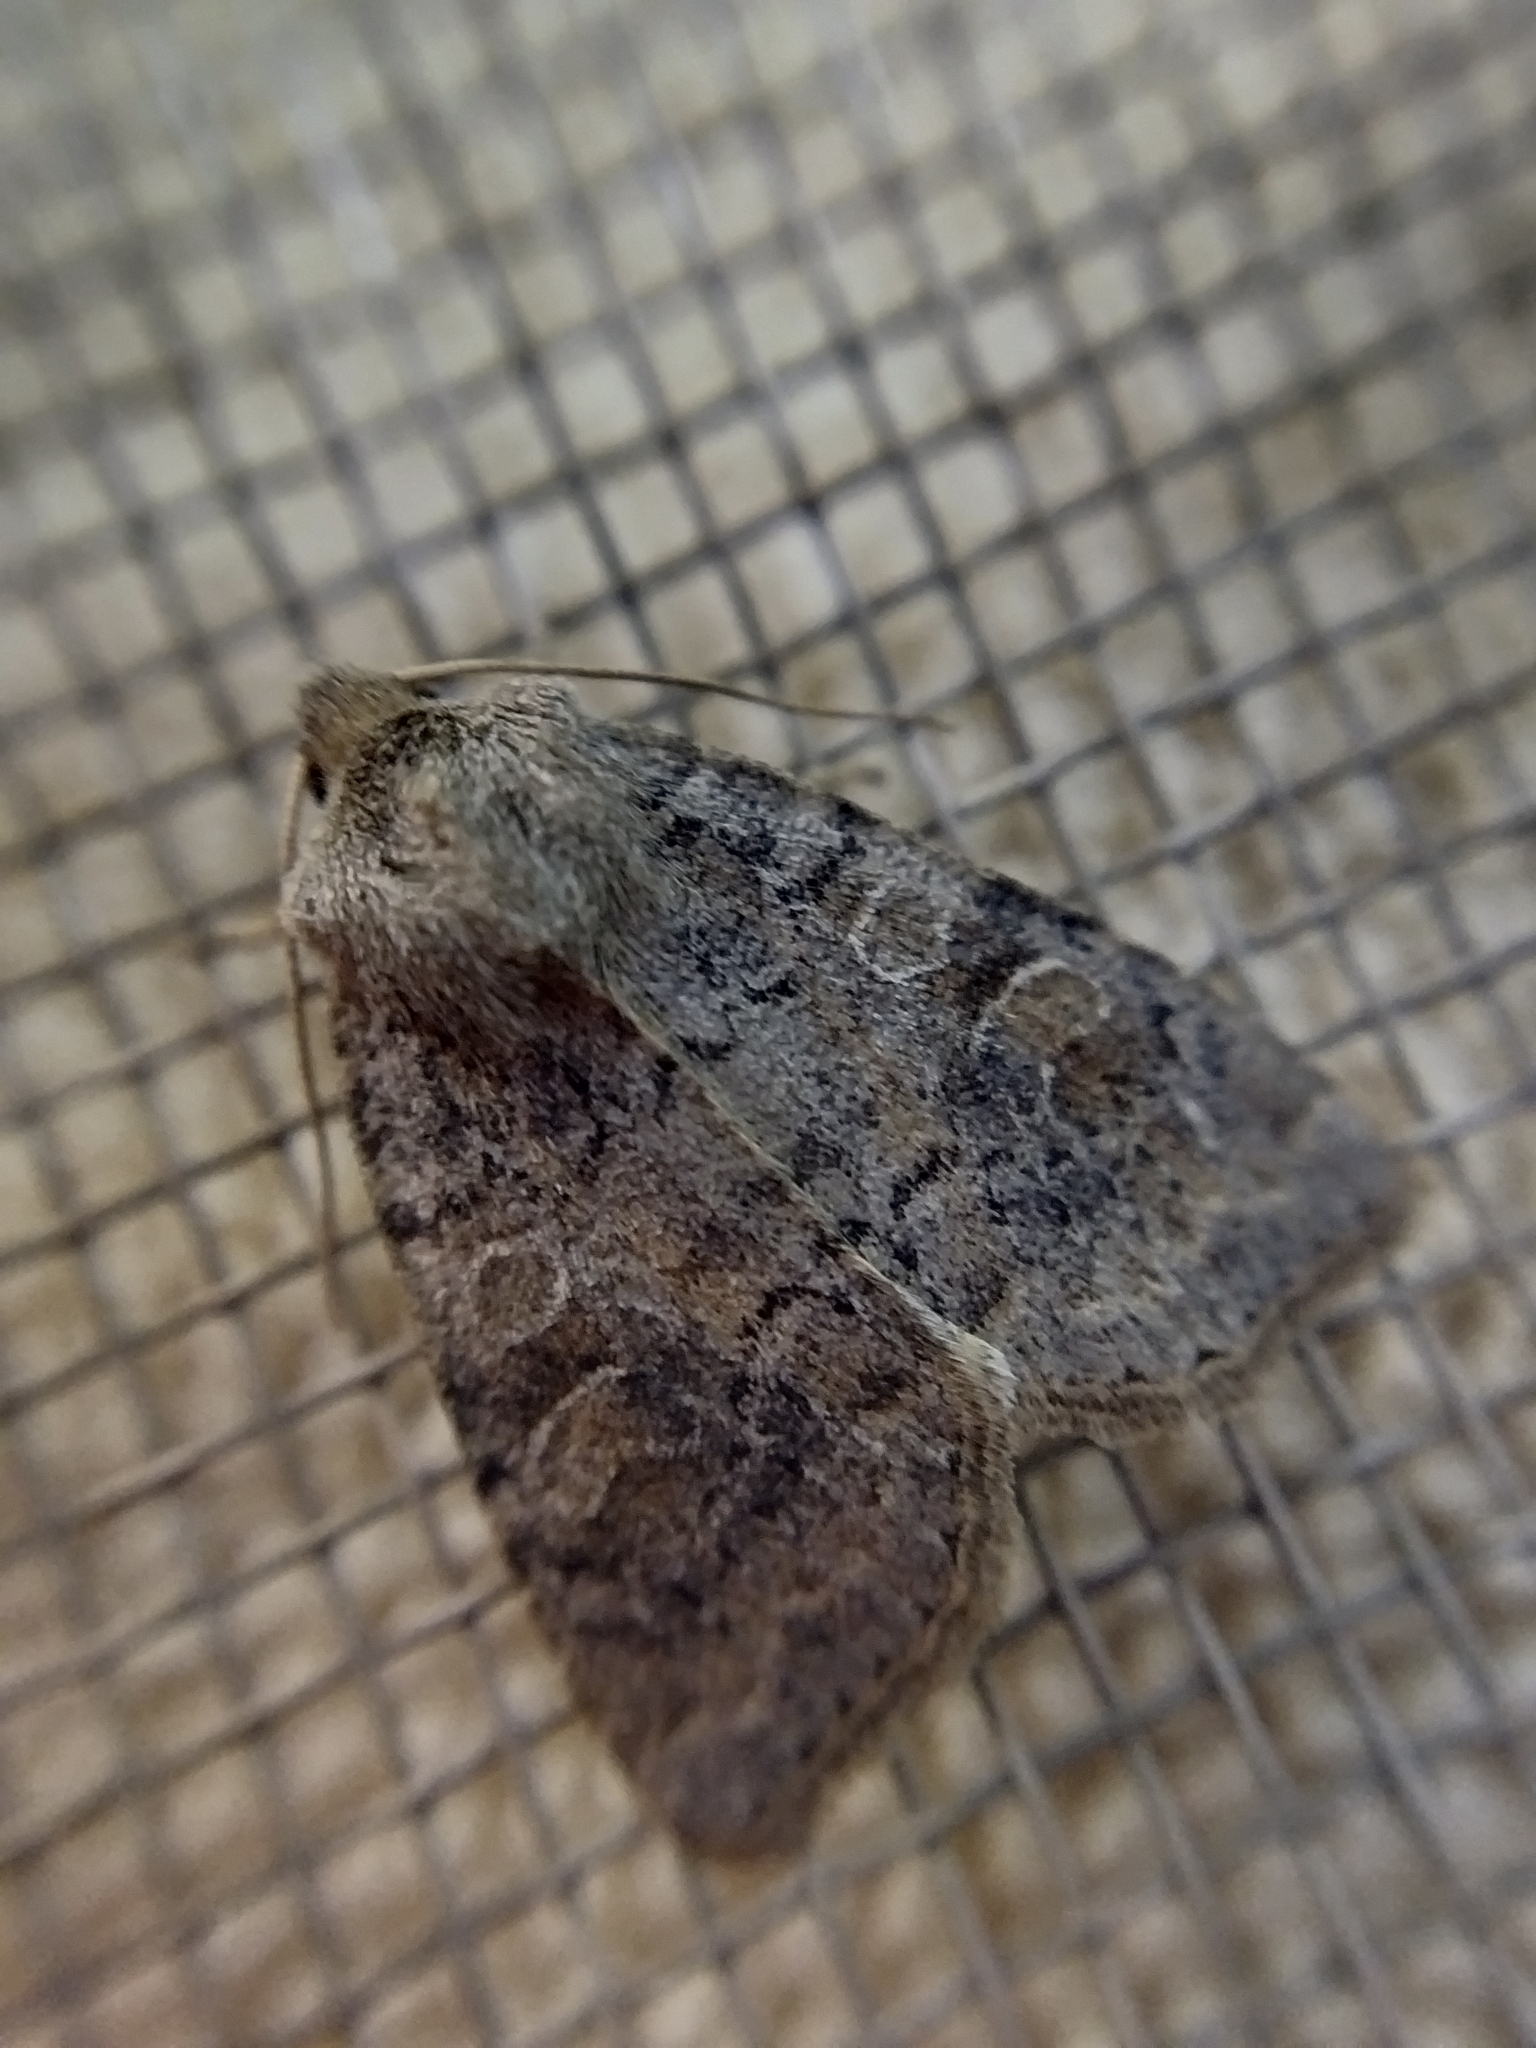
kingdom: Animalia
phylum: Arthropoda
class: Insecta
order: Lepidoptera
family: Noctuidae
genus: Parastichtis
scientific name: Parastichtis suspecta
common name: Suspected
